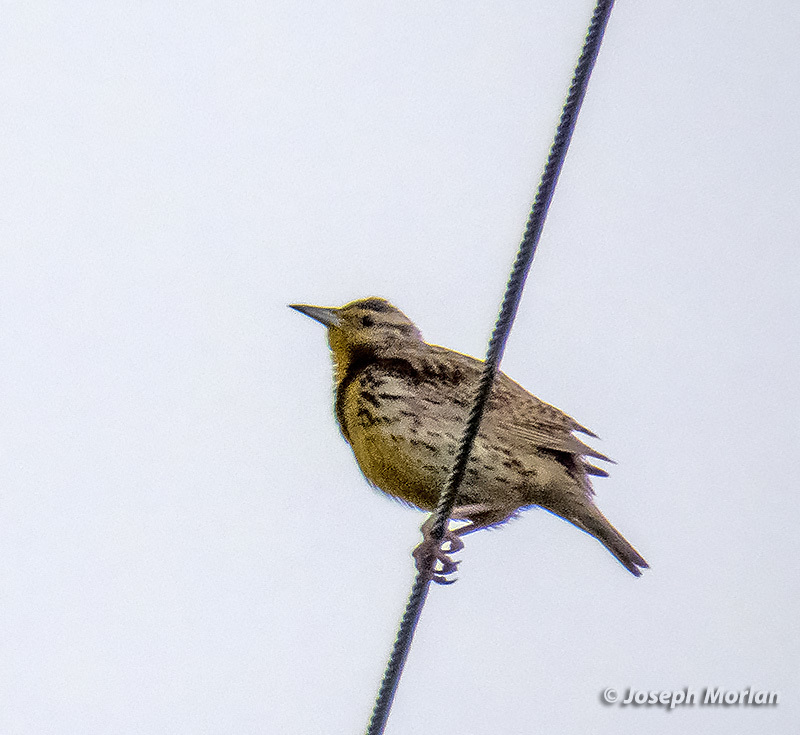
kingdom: Animalia
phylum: Chordata
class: Aves
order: Passeriformes
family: Icteridae
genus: Sturnella
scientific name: Sturnella neglecta
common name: Western meadowlark
